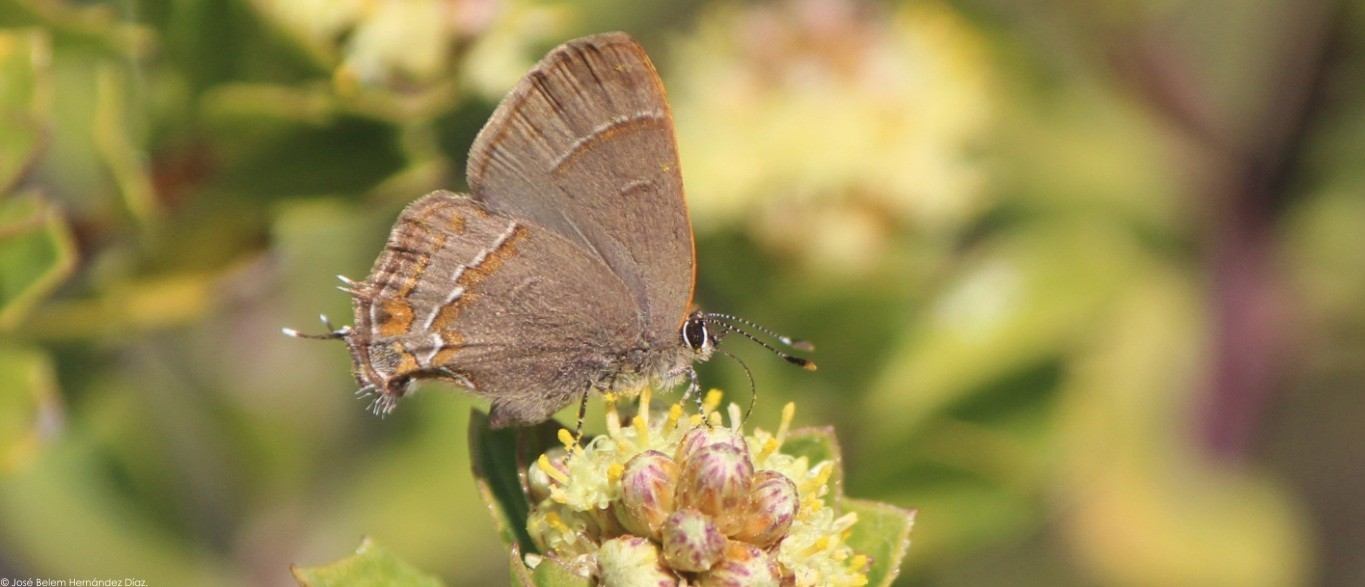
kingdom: Animalia
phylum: Arthropoda
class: Insecta
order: Lepidoptera
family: Lycaenidae
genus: Electrostrymon
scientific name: Electrostrymon
